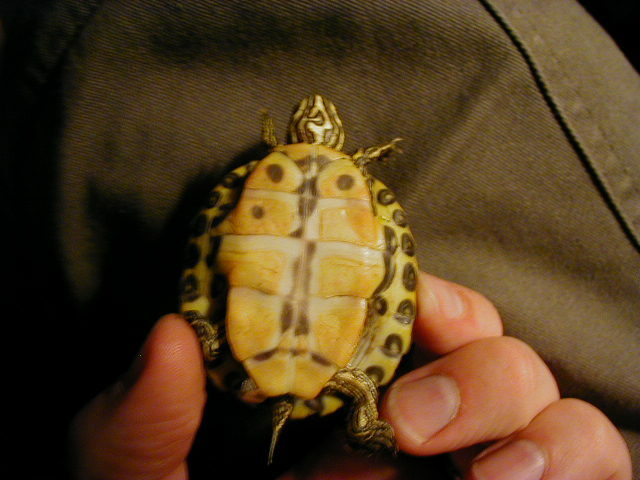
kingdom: Animalia
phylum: Chordata
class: Testudines
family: Emydidae
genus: Pseudemys
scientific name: Pseudemys concinna
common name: Eastern river cooter
